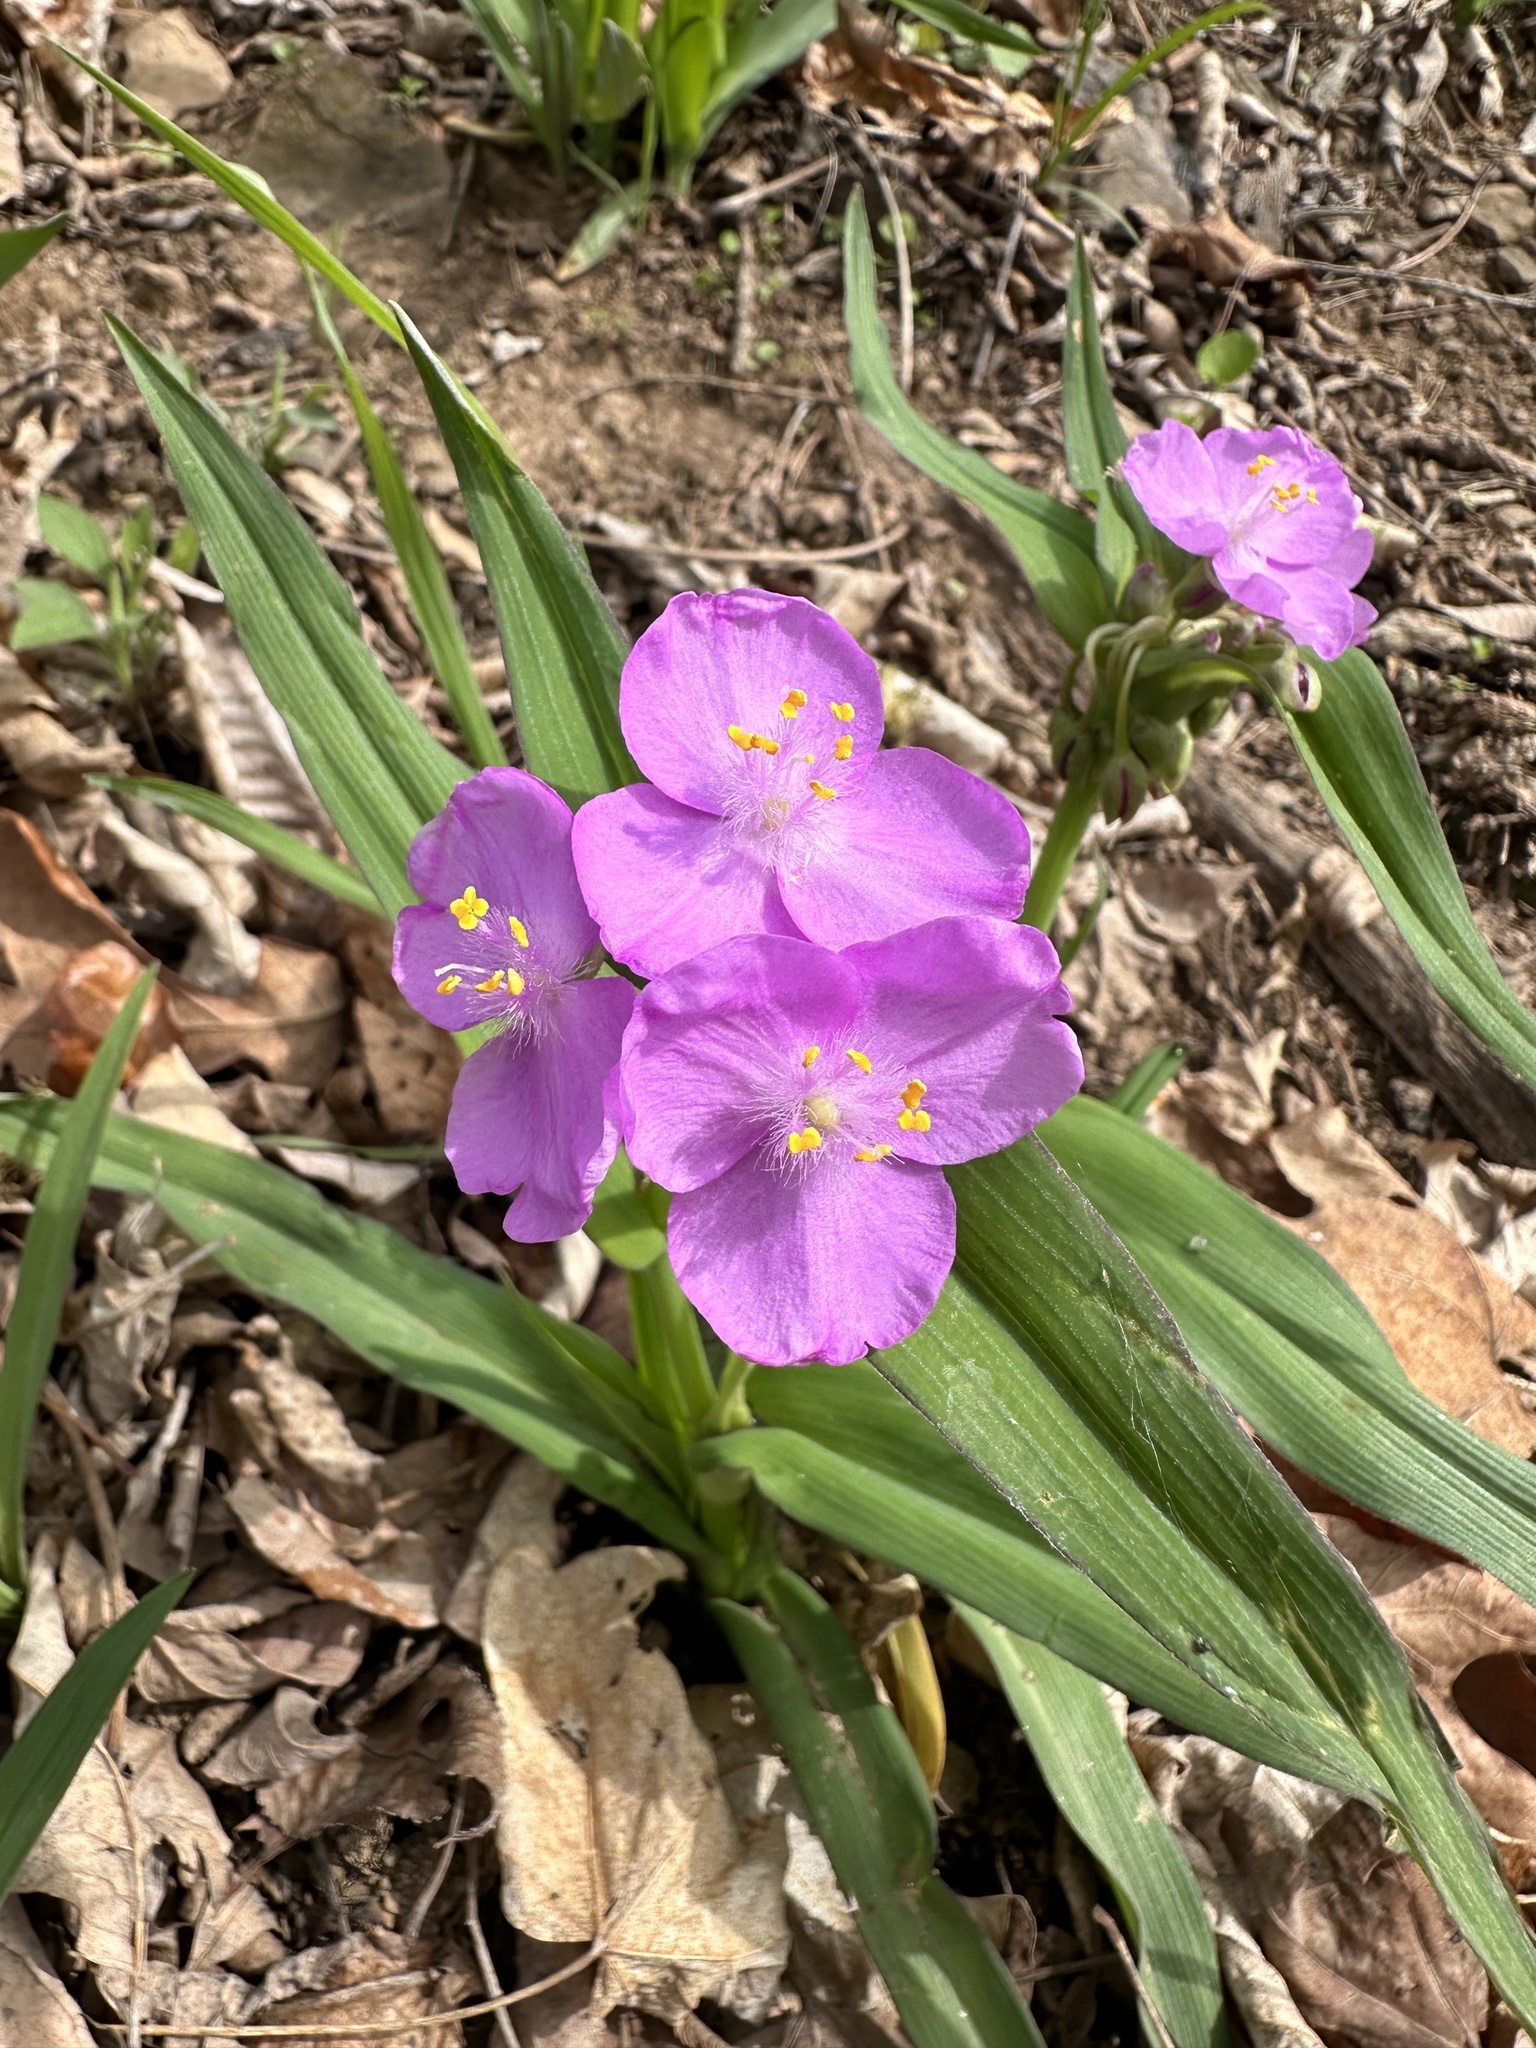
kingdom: Plantae
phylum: Tracheophyta
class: Liliopsida
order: Commelinales
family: Commelinaceae
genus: Tradescantia
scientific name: Tradescantia ozarkana
